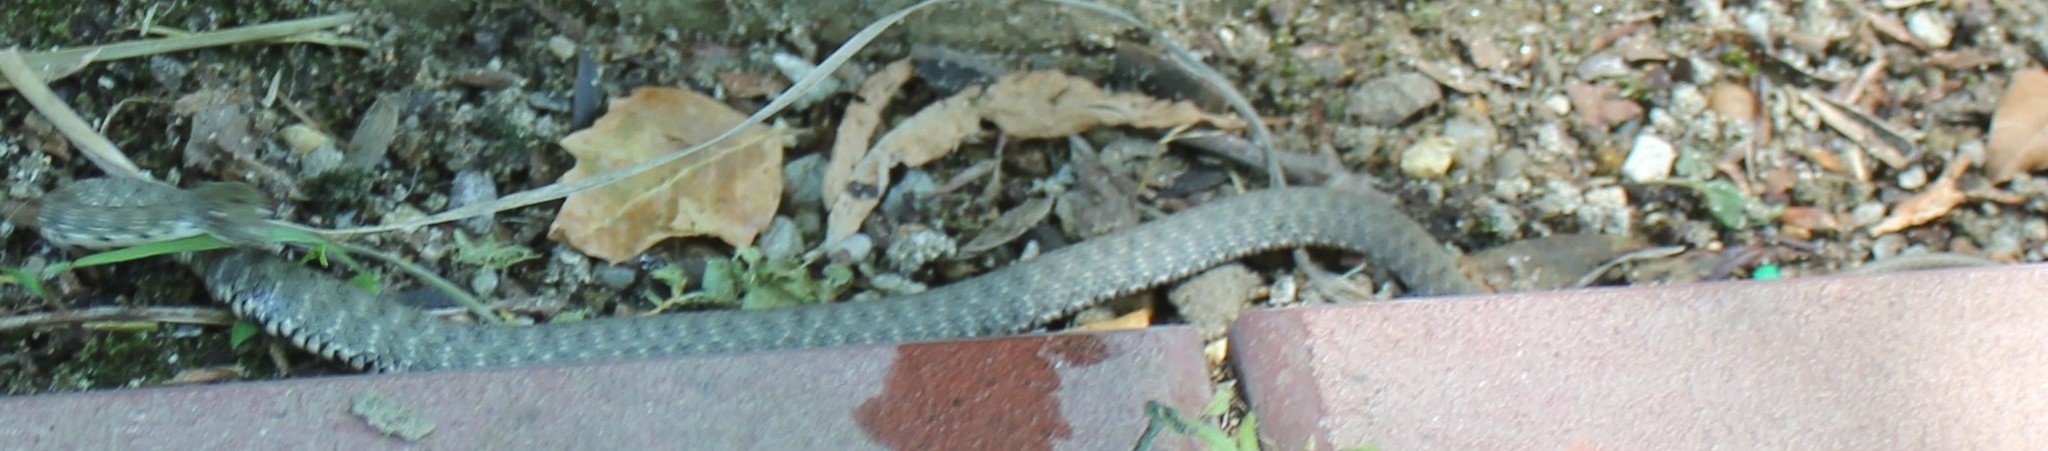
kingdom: Animalia
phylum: Chordata
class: Squamata
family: Colubridae
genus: Natrix
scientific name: Natrix tessellata
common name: Dice snake
